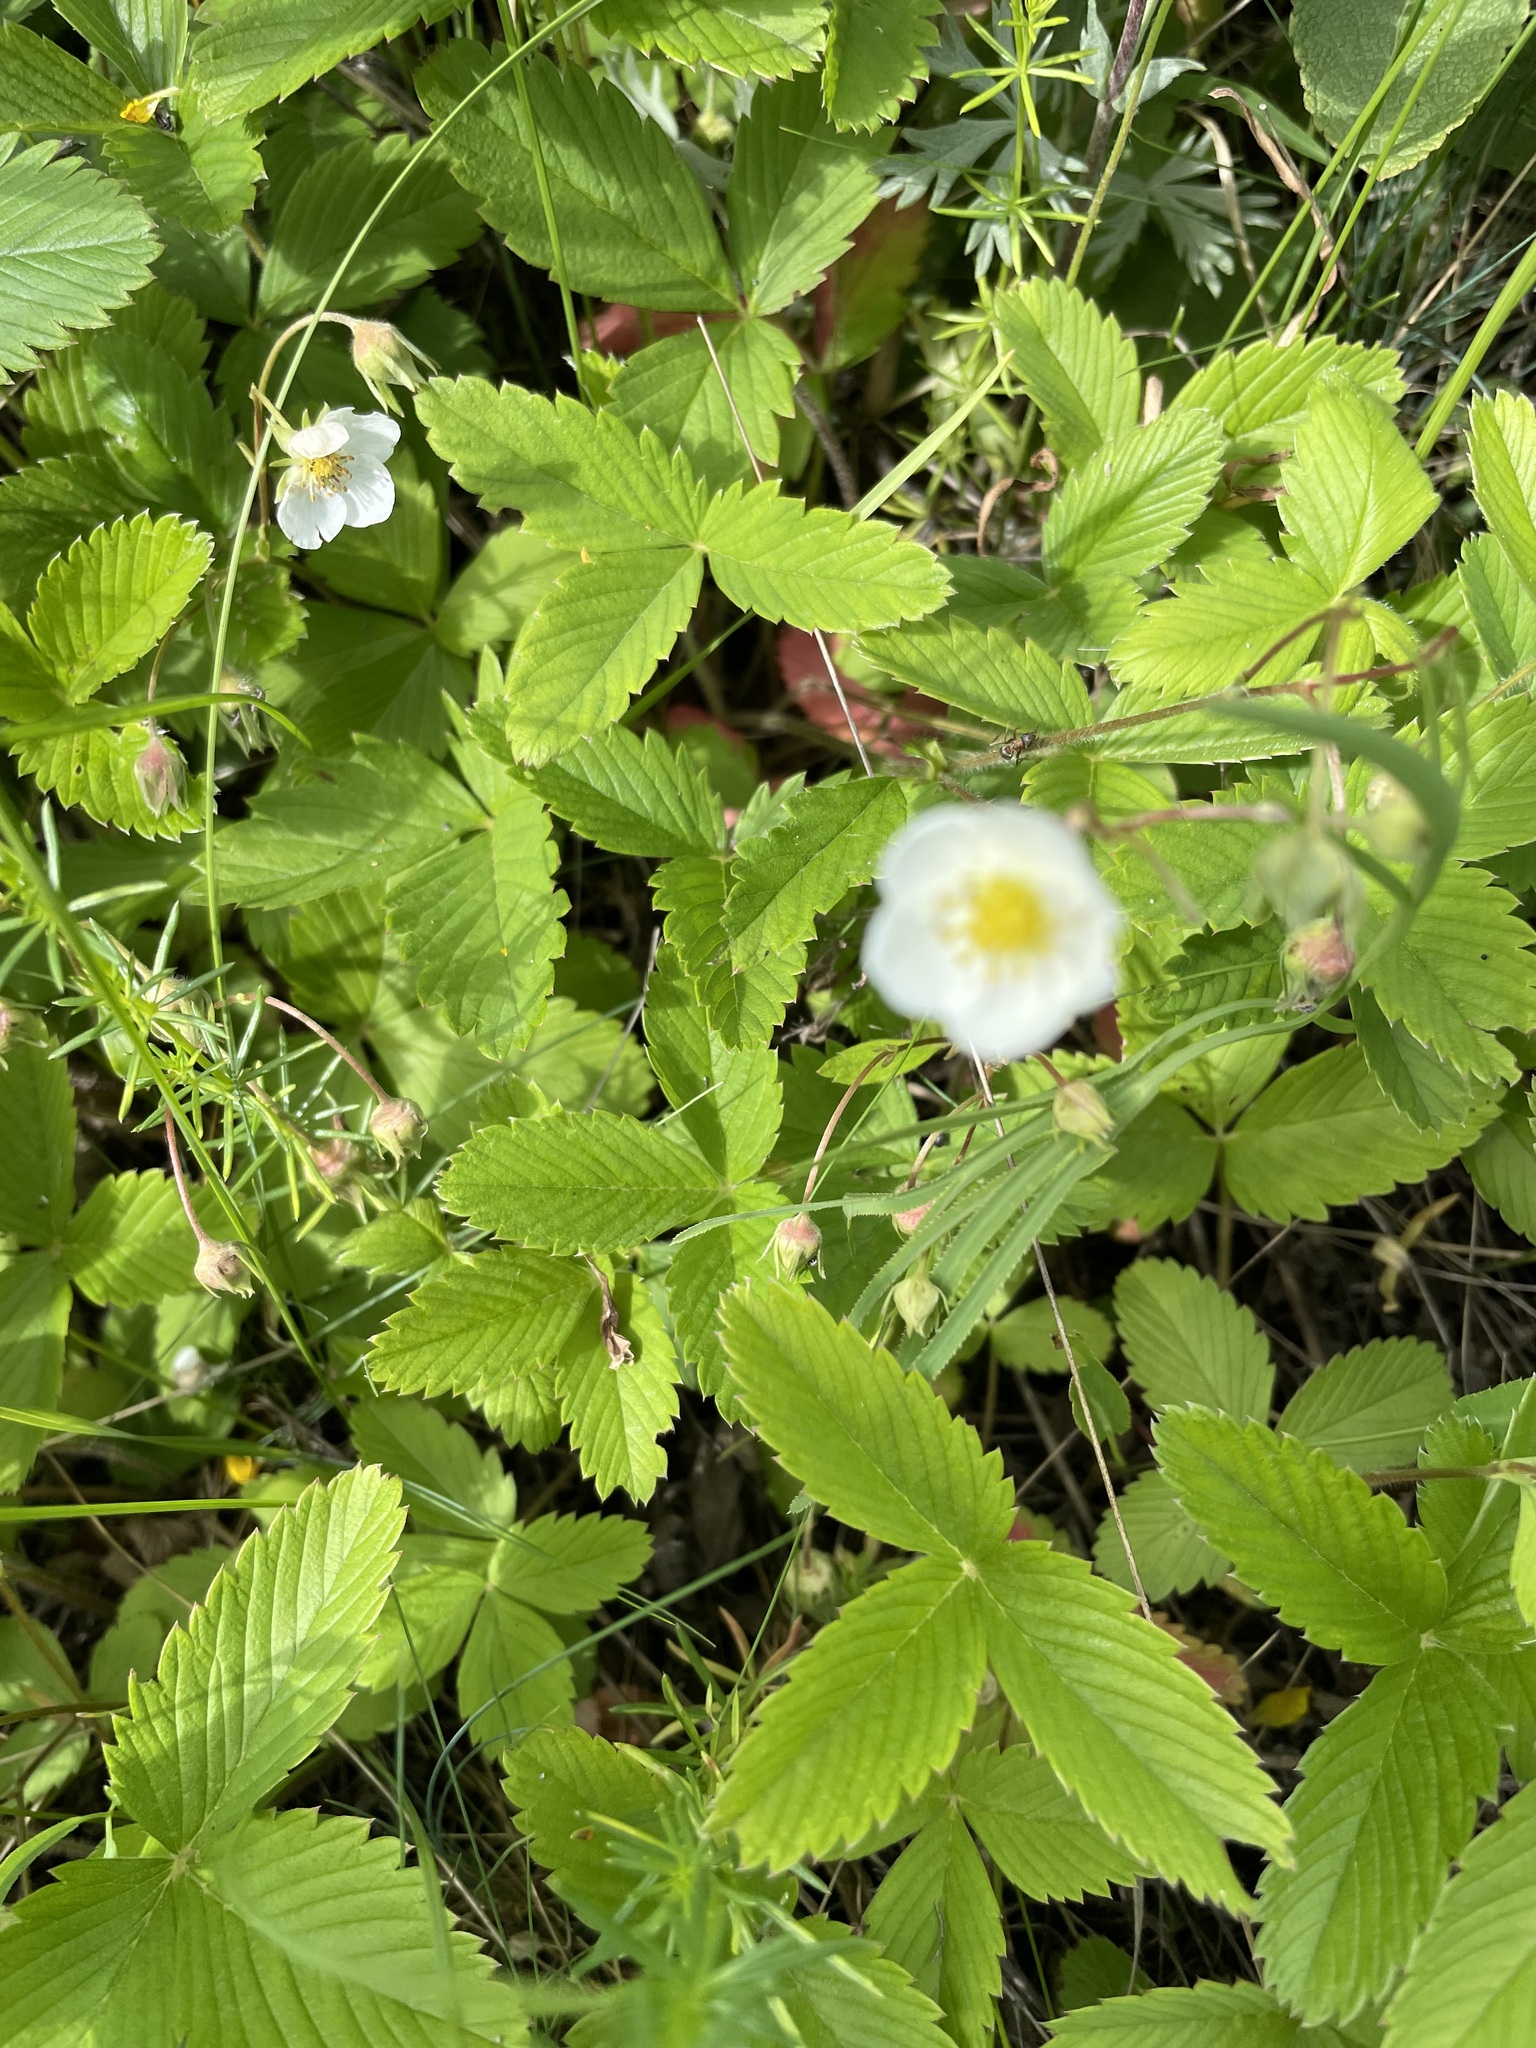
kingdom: Plantae
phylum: Tracheophyta
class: Magnoliopsida
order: Rosales
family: Rosaceae
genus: Fragaria
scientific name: Fragaria viridis
